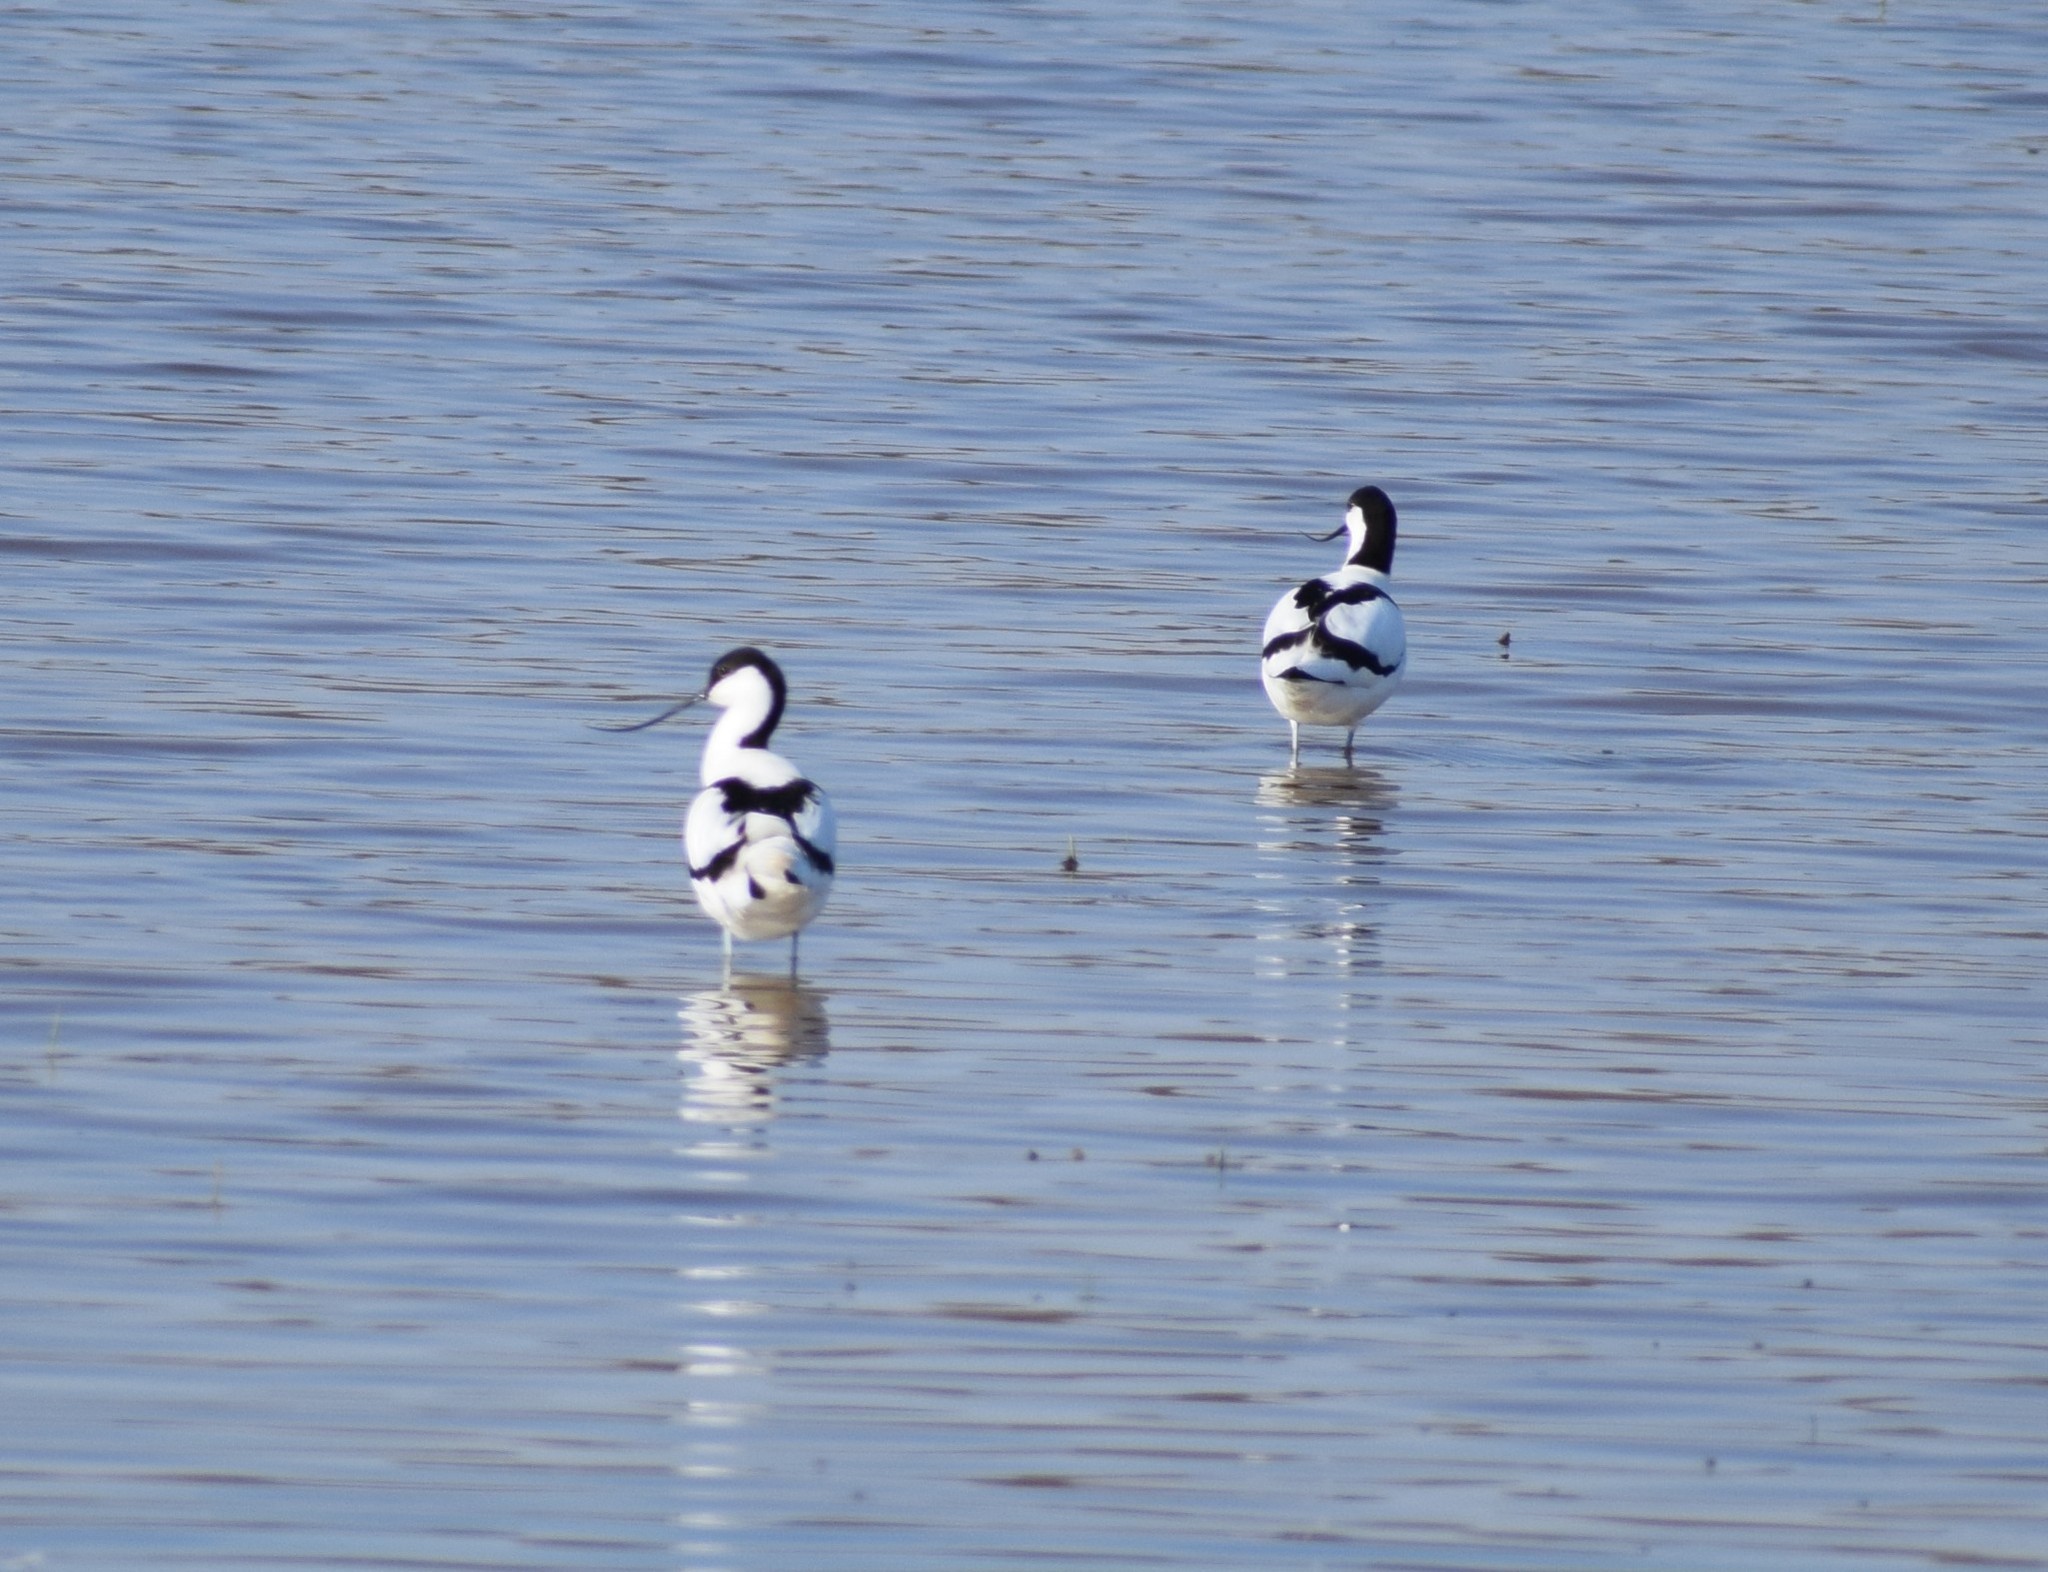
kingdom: Animalia
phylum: Chordata
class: Aves
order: Charadriiformes
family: Recurvirostridae
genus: Recurvirostra
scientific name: Recurvirostra avosetta
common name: Pied avocet
